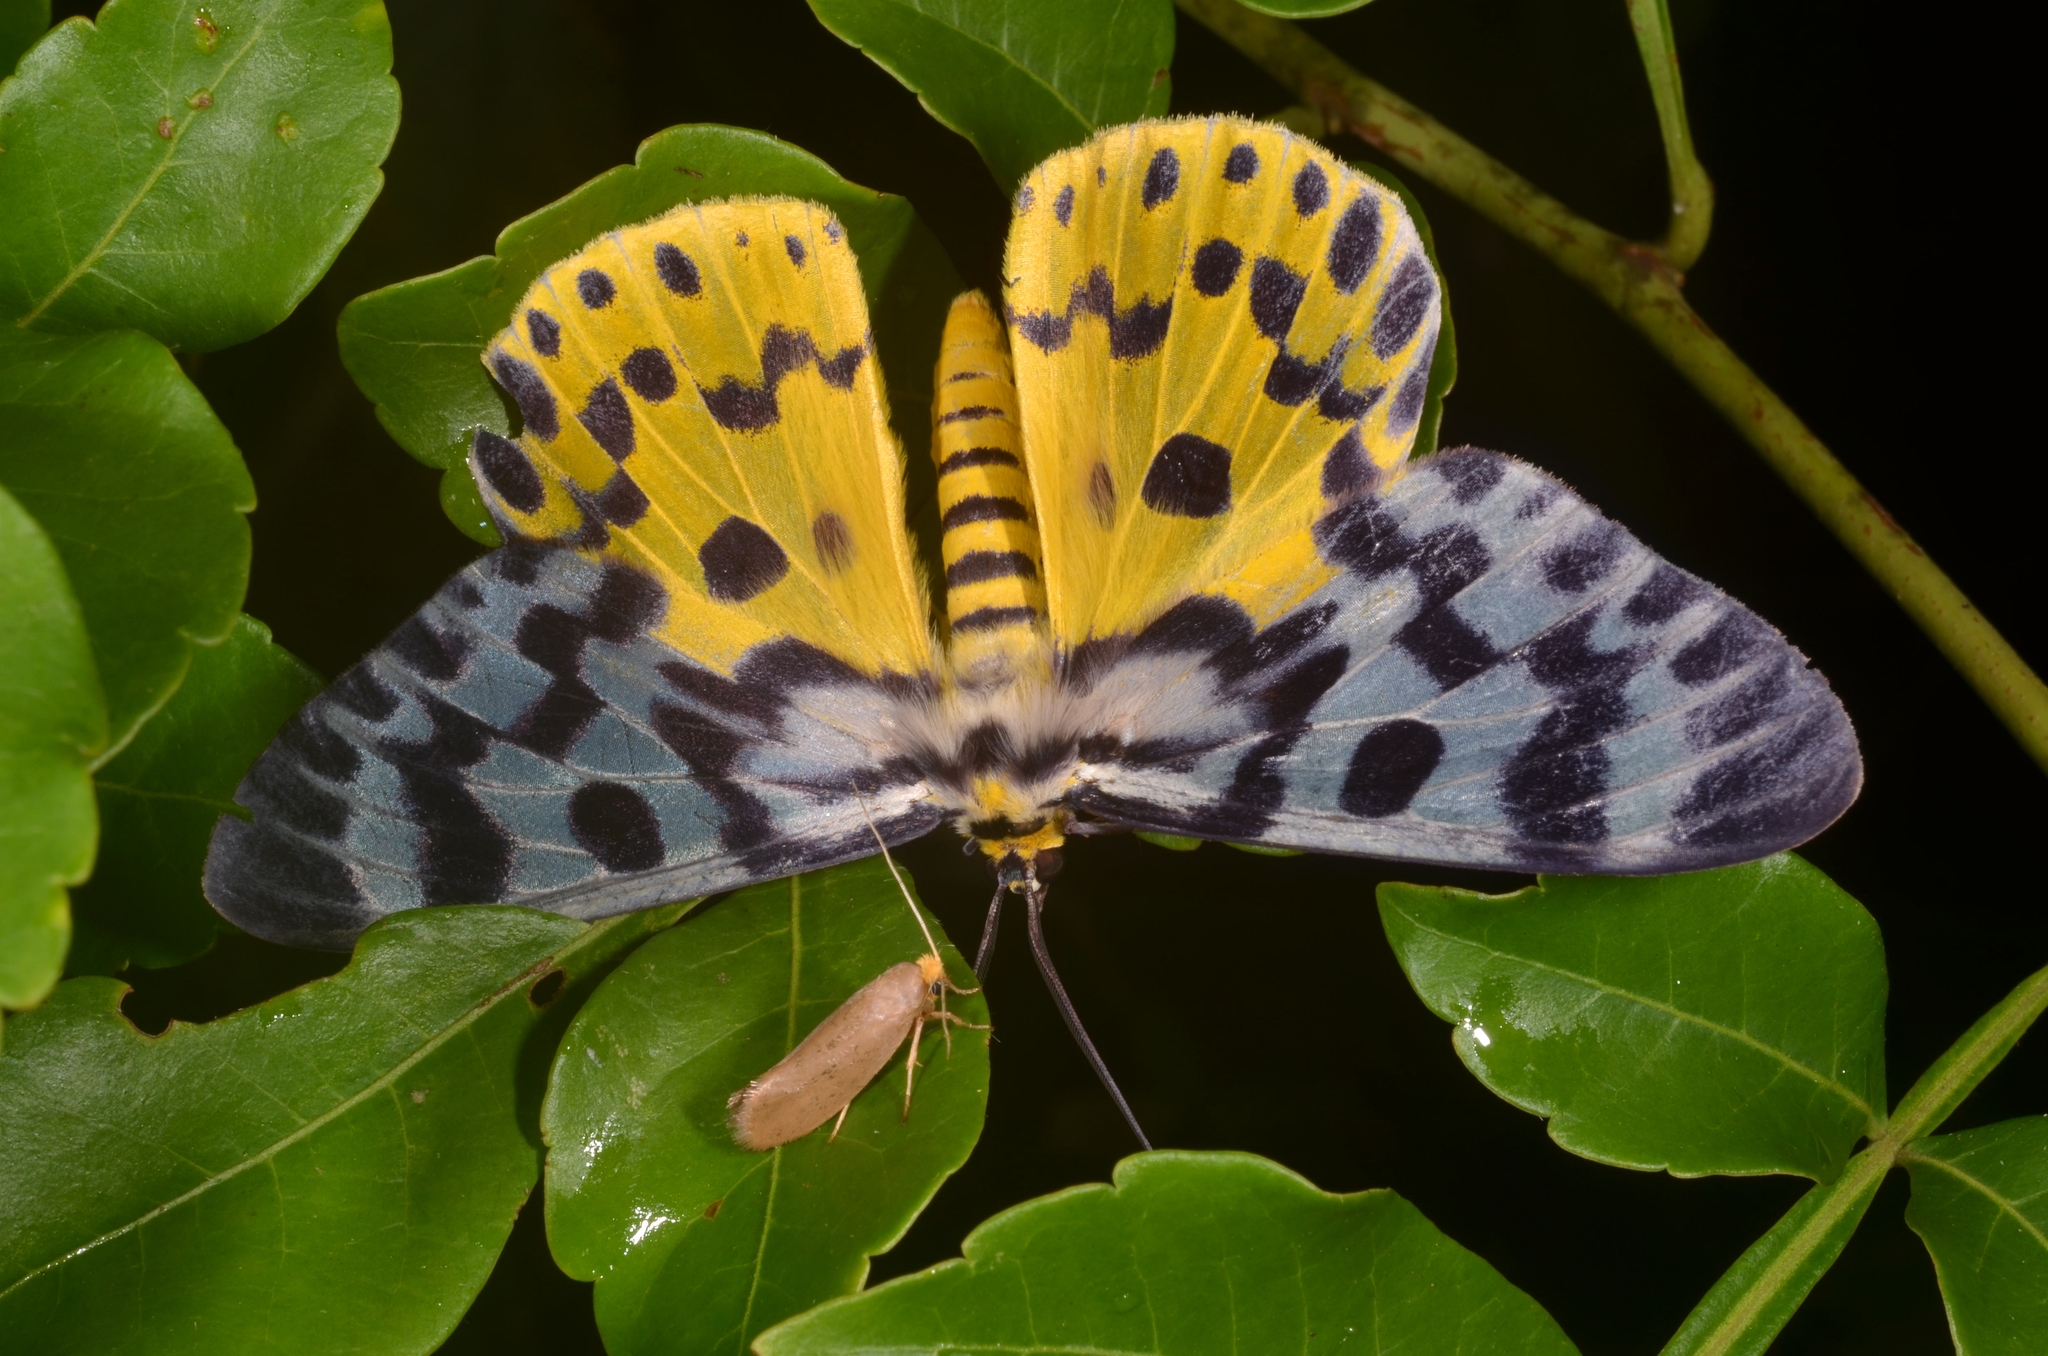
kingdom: Animalia
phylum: Arthropoda
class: Insecta
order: Lepidoptera
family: Geometridae
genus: Dysphania
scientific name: Dysphania malayanus
